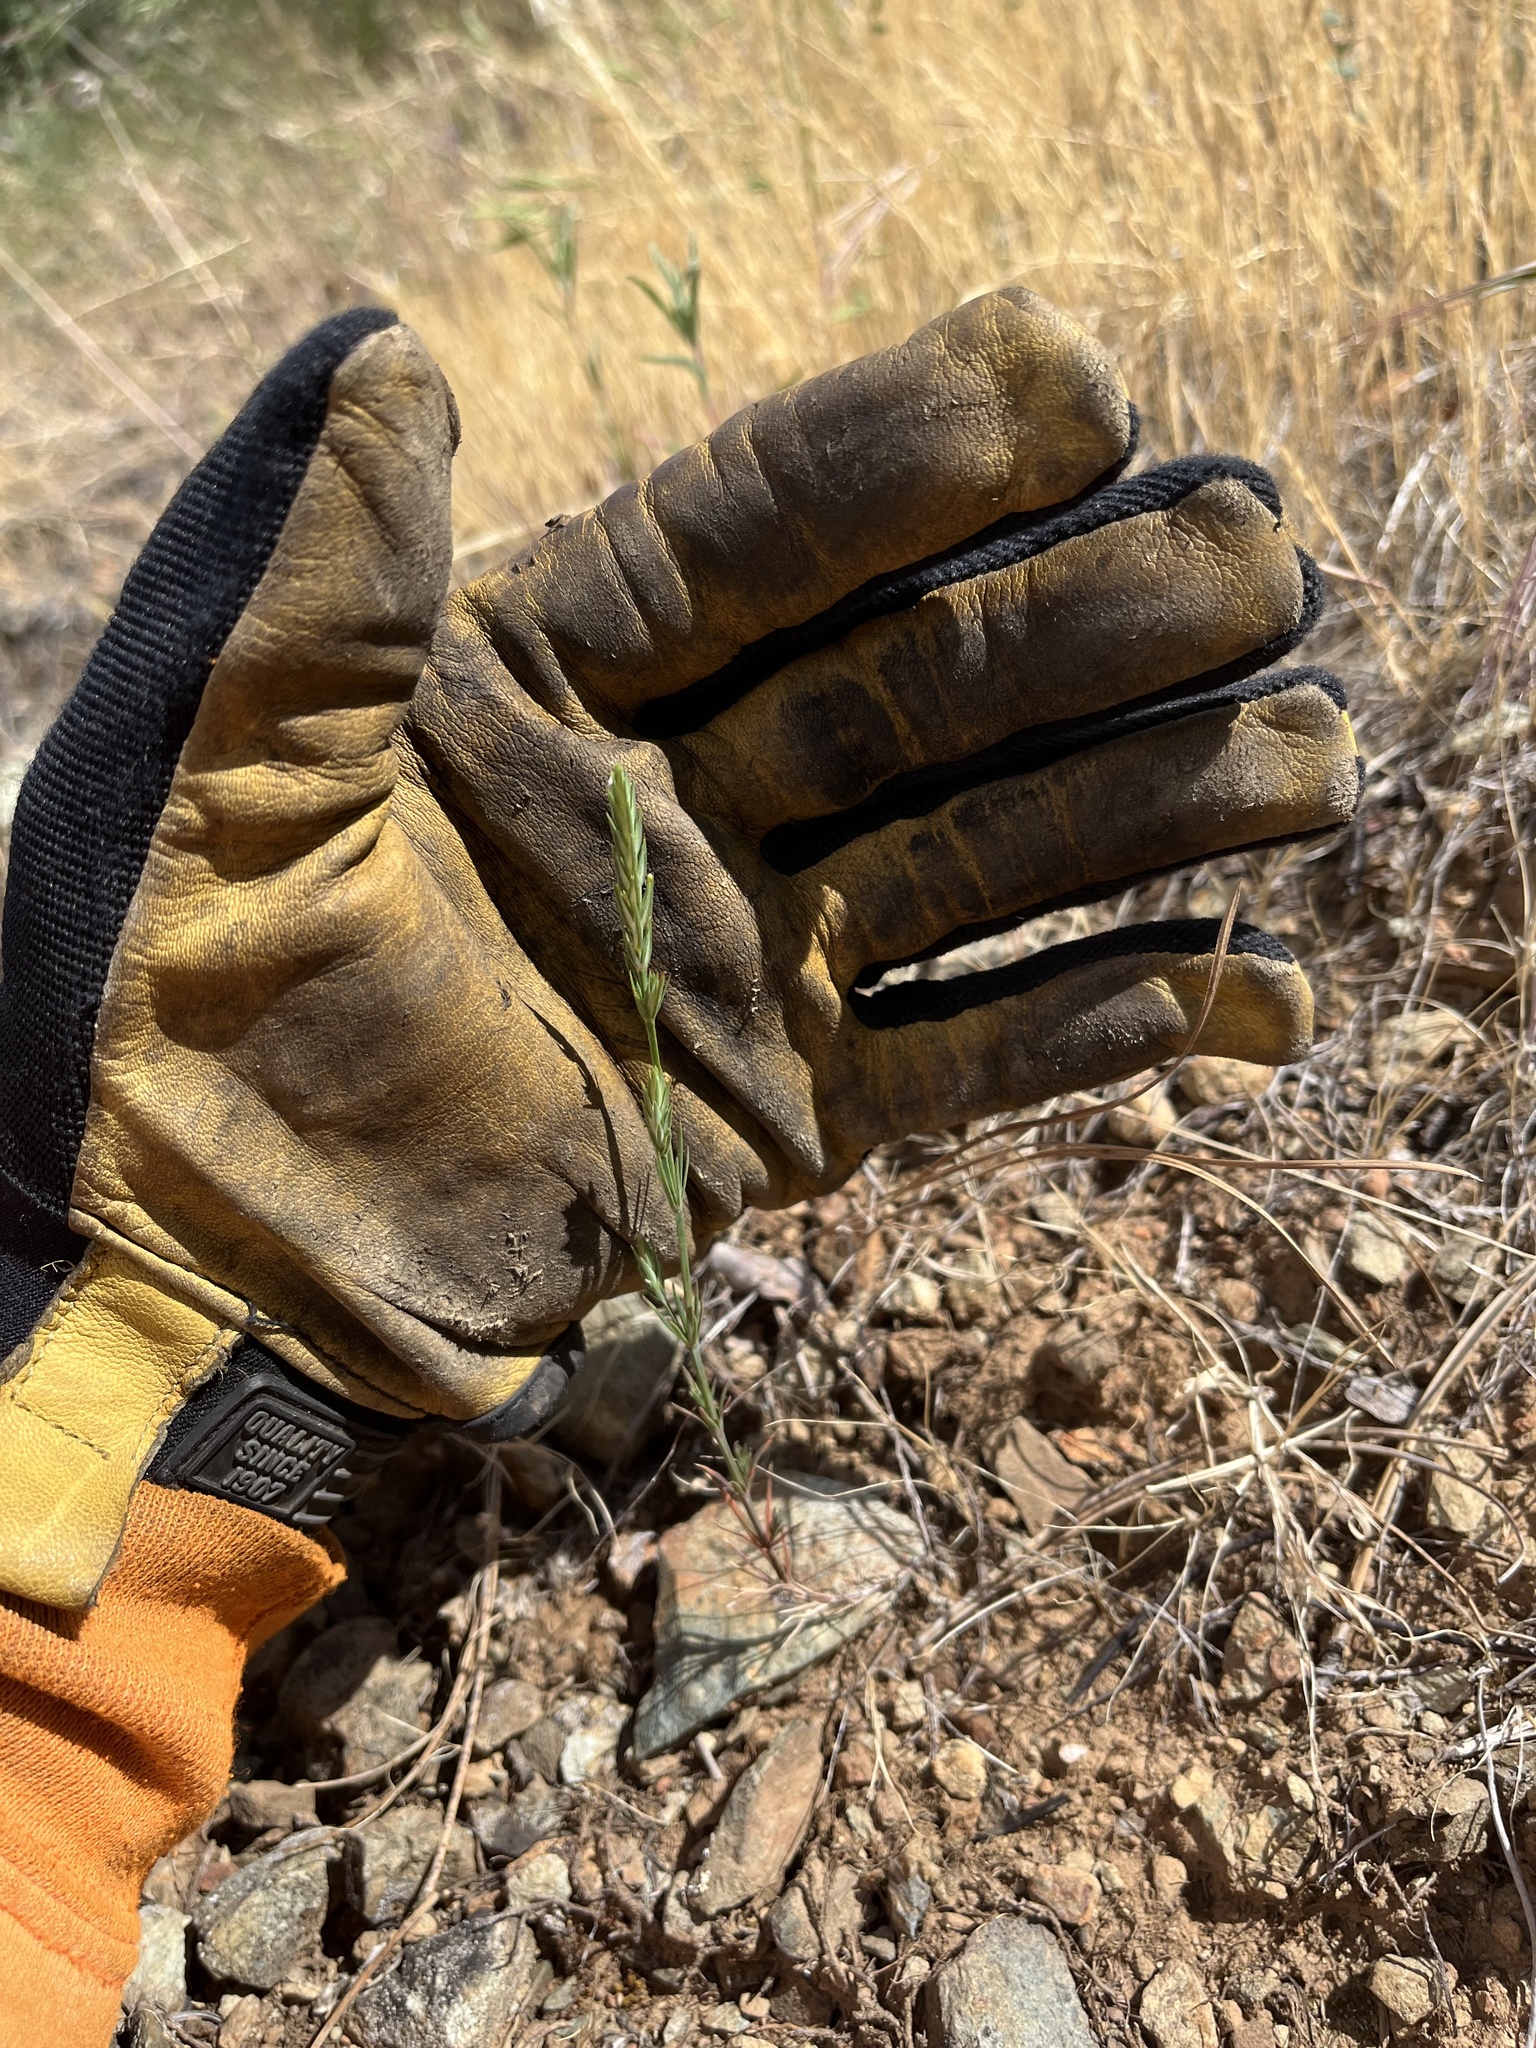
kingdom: Plantae
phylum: Tracheophyta
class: Magnoliopsida
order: Gentianales
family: Rubiaceae
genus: Crucianella
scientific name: Crucianella angustifolia
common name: Narrowleaf crucianella
